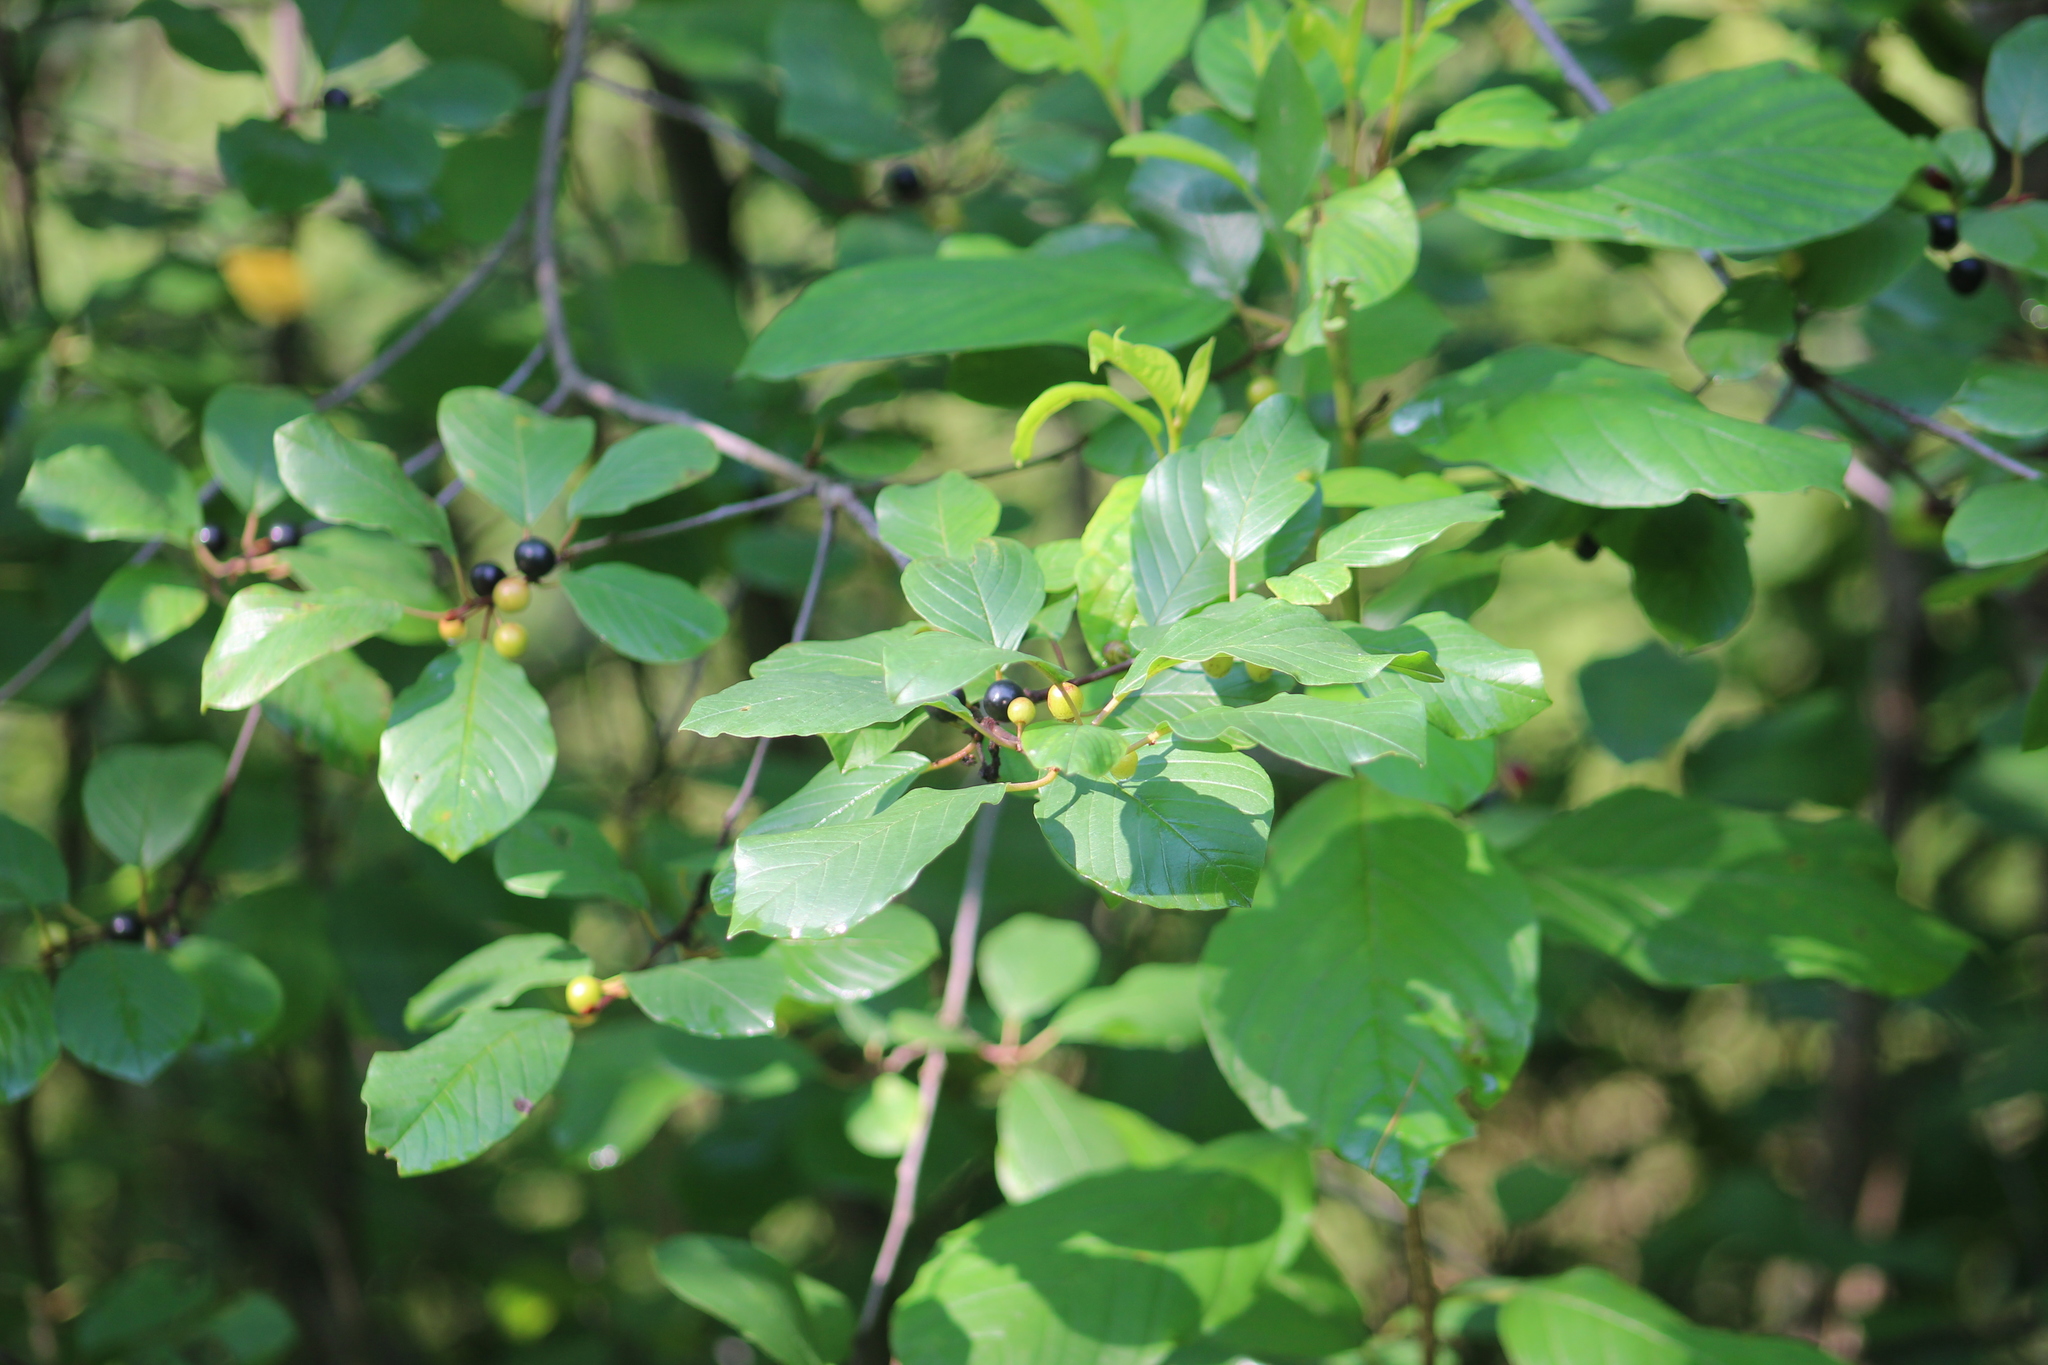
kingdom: Plantae
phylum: Tracheophyta
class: Magnoliopsida
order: Rosales
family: Rhamnaceae
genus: Frangula
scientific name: Frangula alnus
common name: Alder buckthorn
